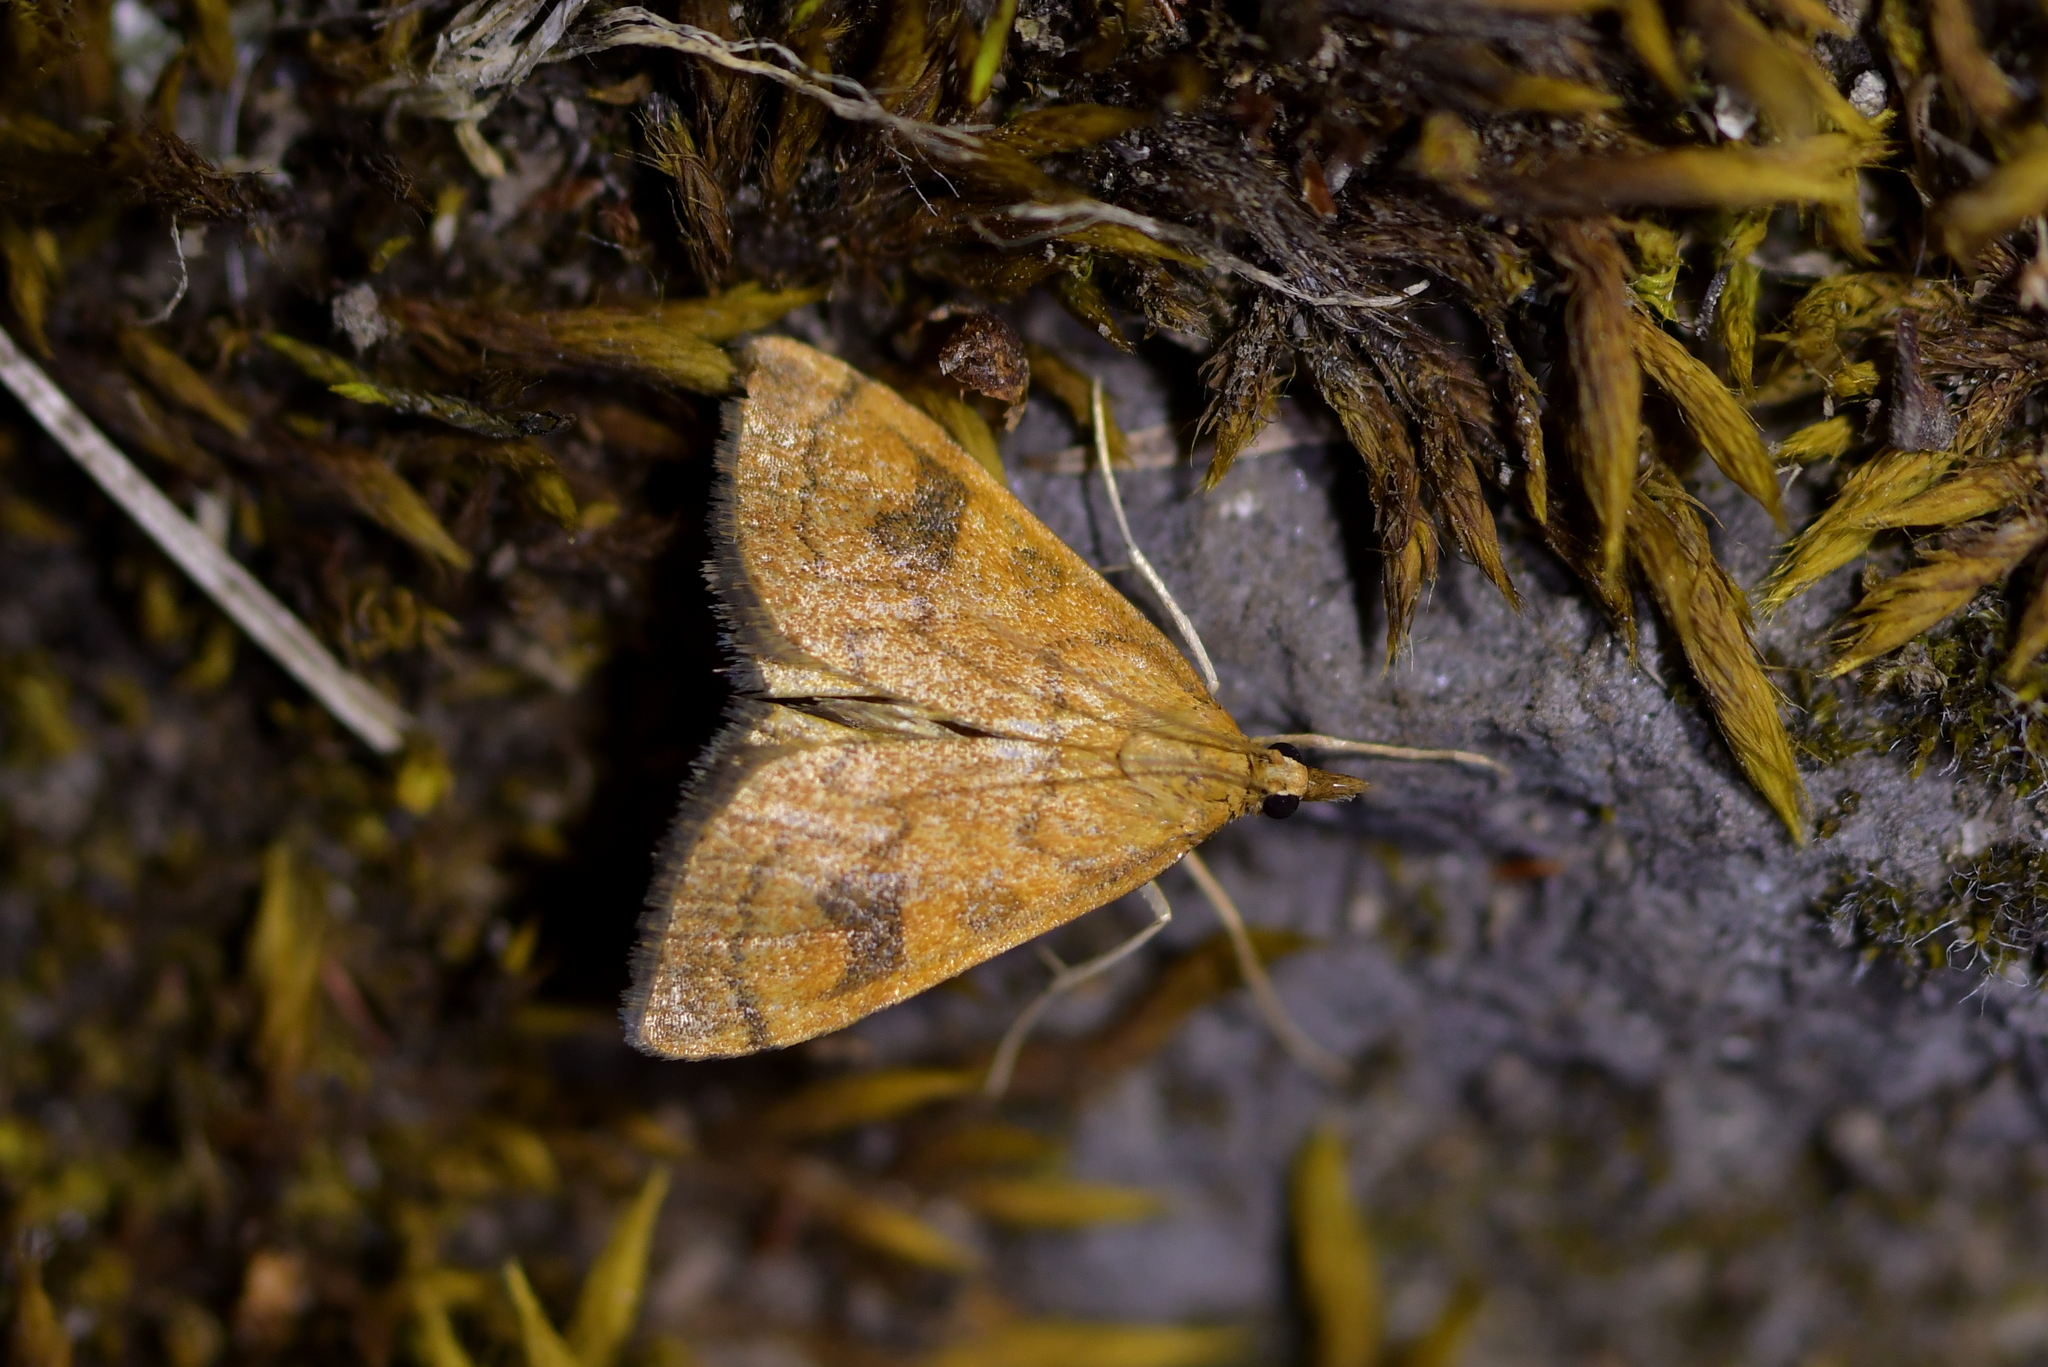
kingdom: Animalia
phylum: Arthropoda
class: Insecta
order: Lepidoptera
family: Crambidae
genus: Udea
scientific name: Udea Mnesictena flavidalis
